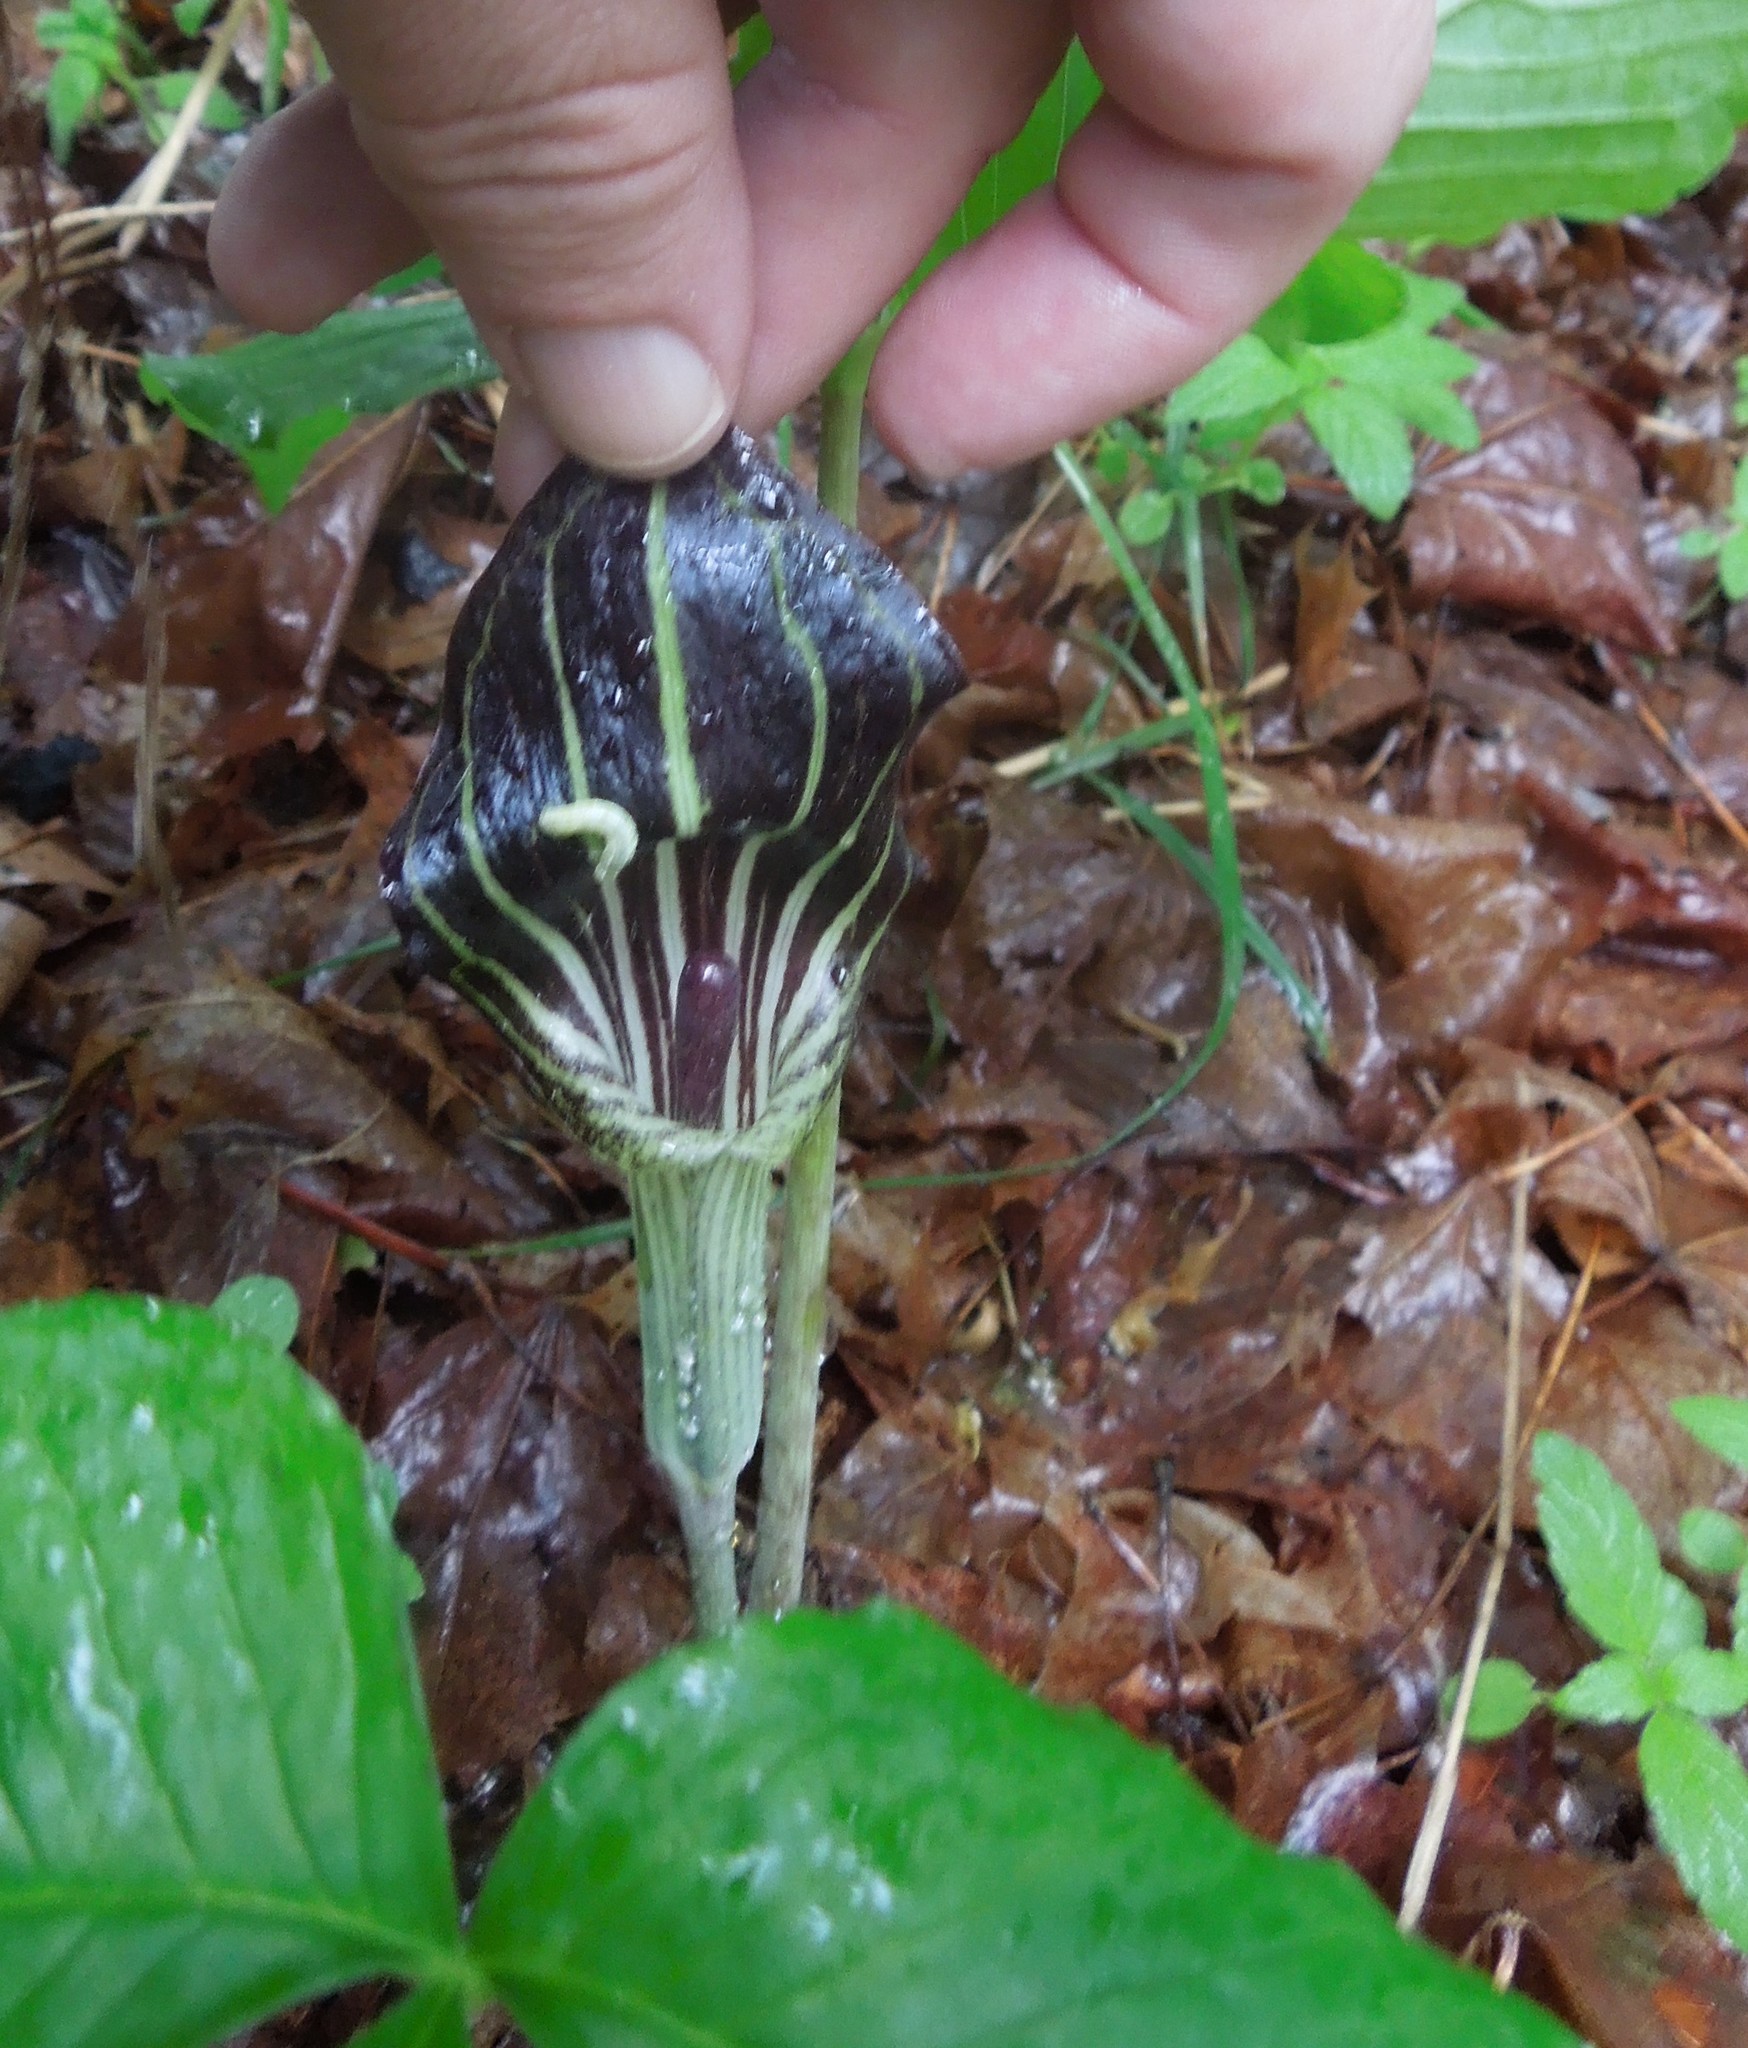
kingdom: Plantae
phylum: Tracheophyta
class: Liliopsida
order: Alismatales
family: Araceae
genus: Arisaema
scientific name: Arisaema triphyllum
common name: Jack-in-the-pulpit
